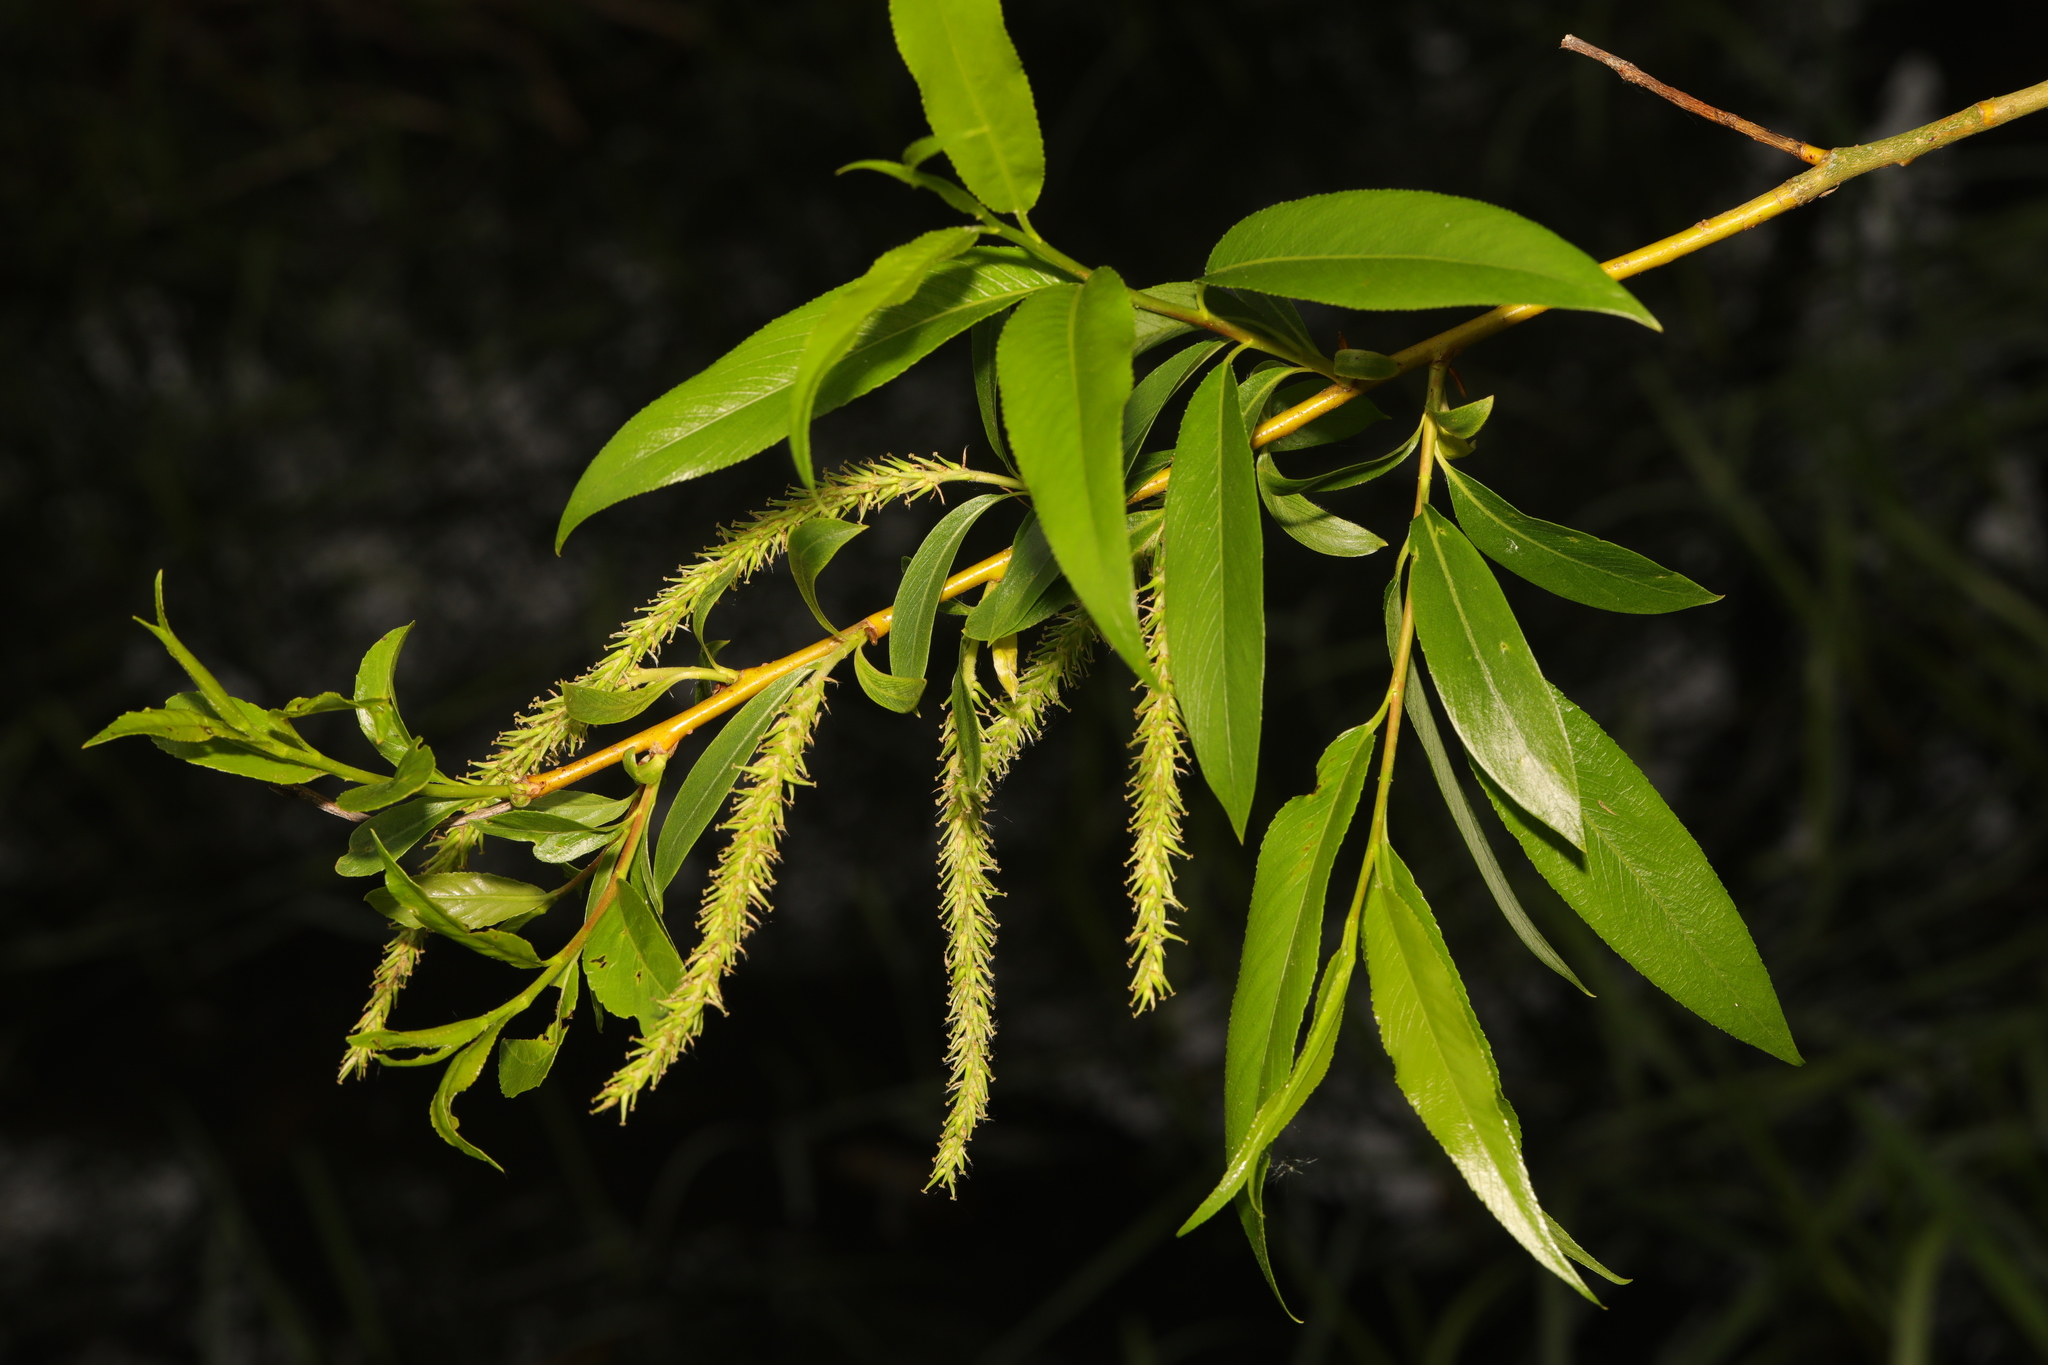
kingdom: Plantae
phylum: Tracheophyta
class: Magnoliopsida
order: Malpighiales
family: Salicaceae
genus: Salix
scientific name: Salix fragilis
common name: Crack willow
